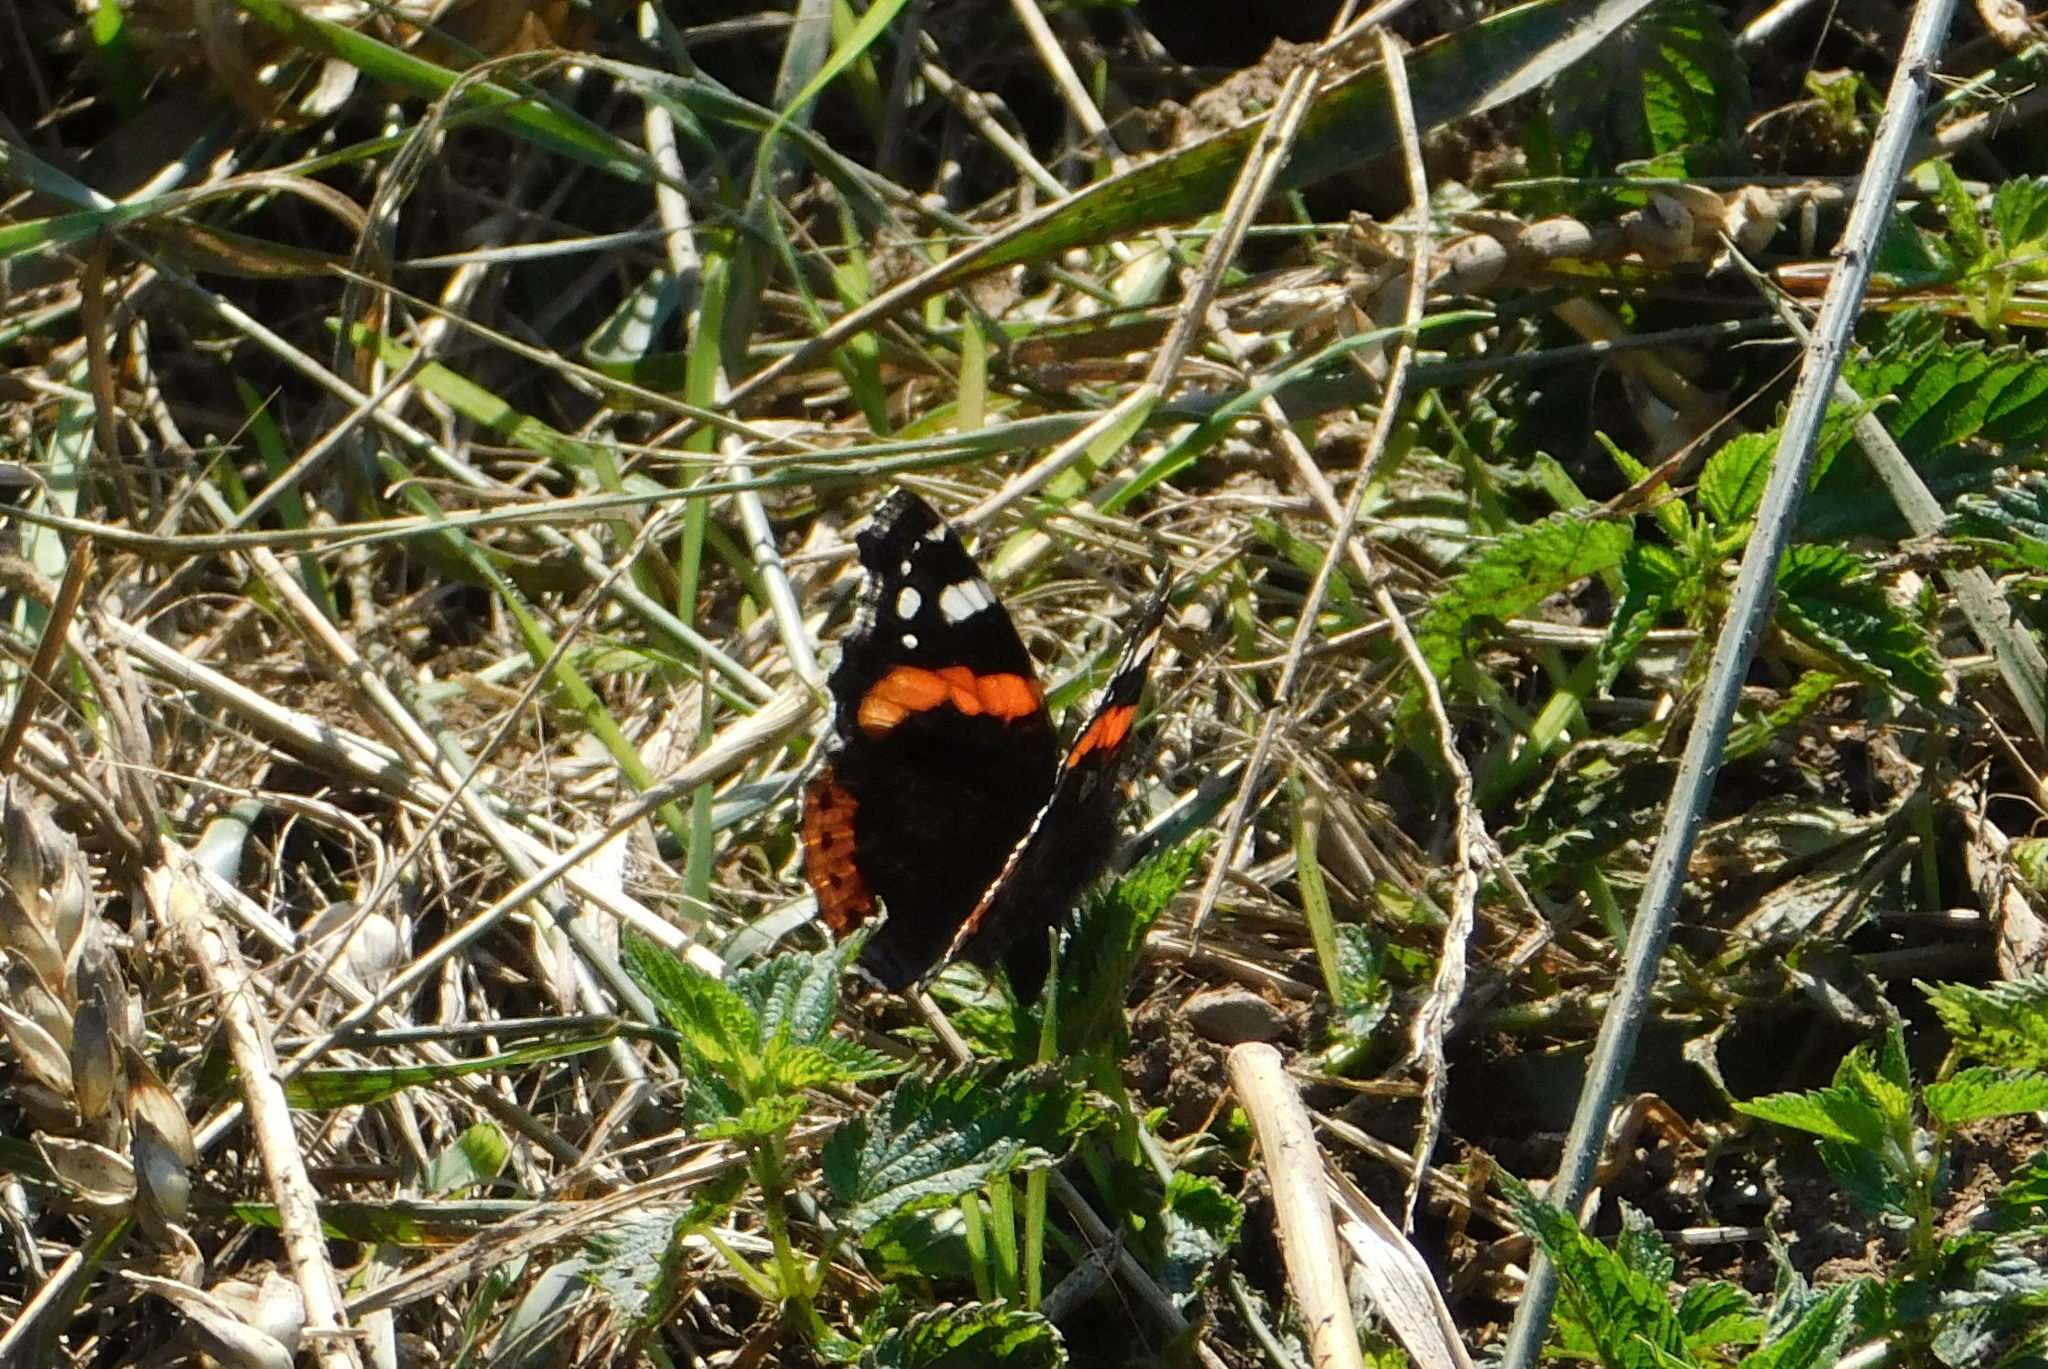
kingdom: Animalia
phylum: Arthropoda
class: Insecta
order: Lepidoptera
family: Nymphalidae
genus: Vanessa
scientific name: Vanessa atalanta
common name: Red admiral
